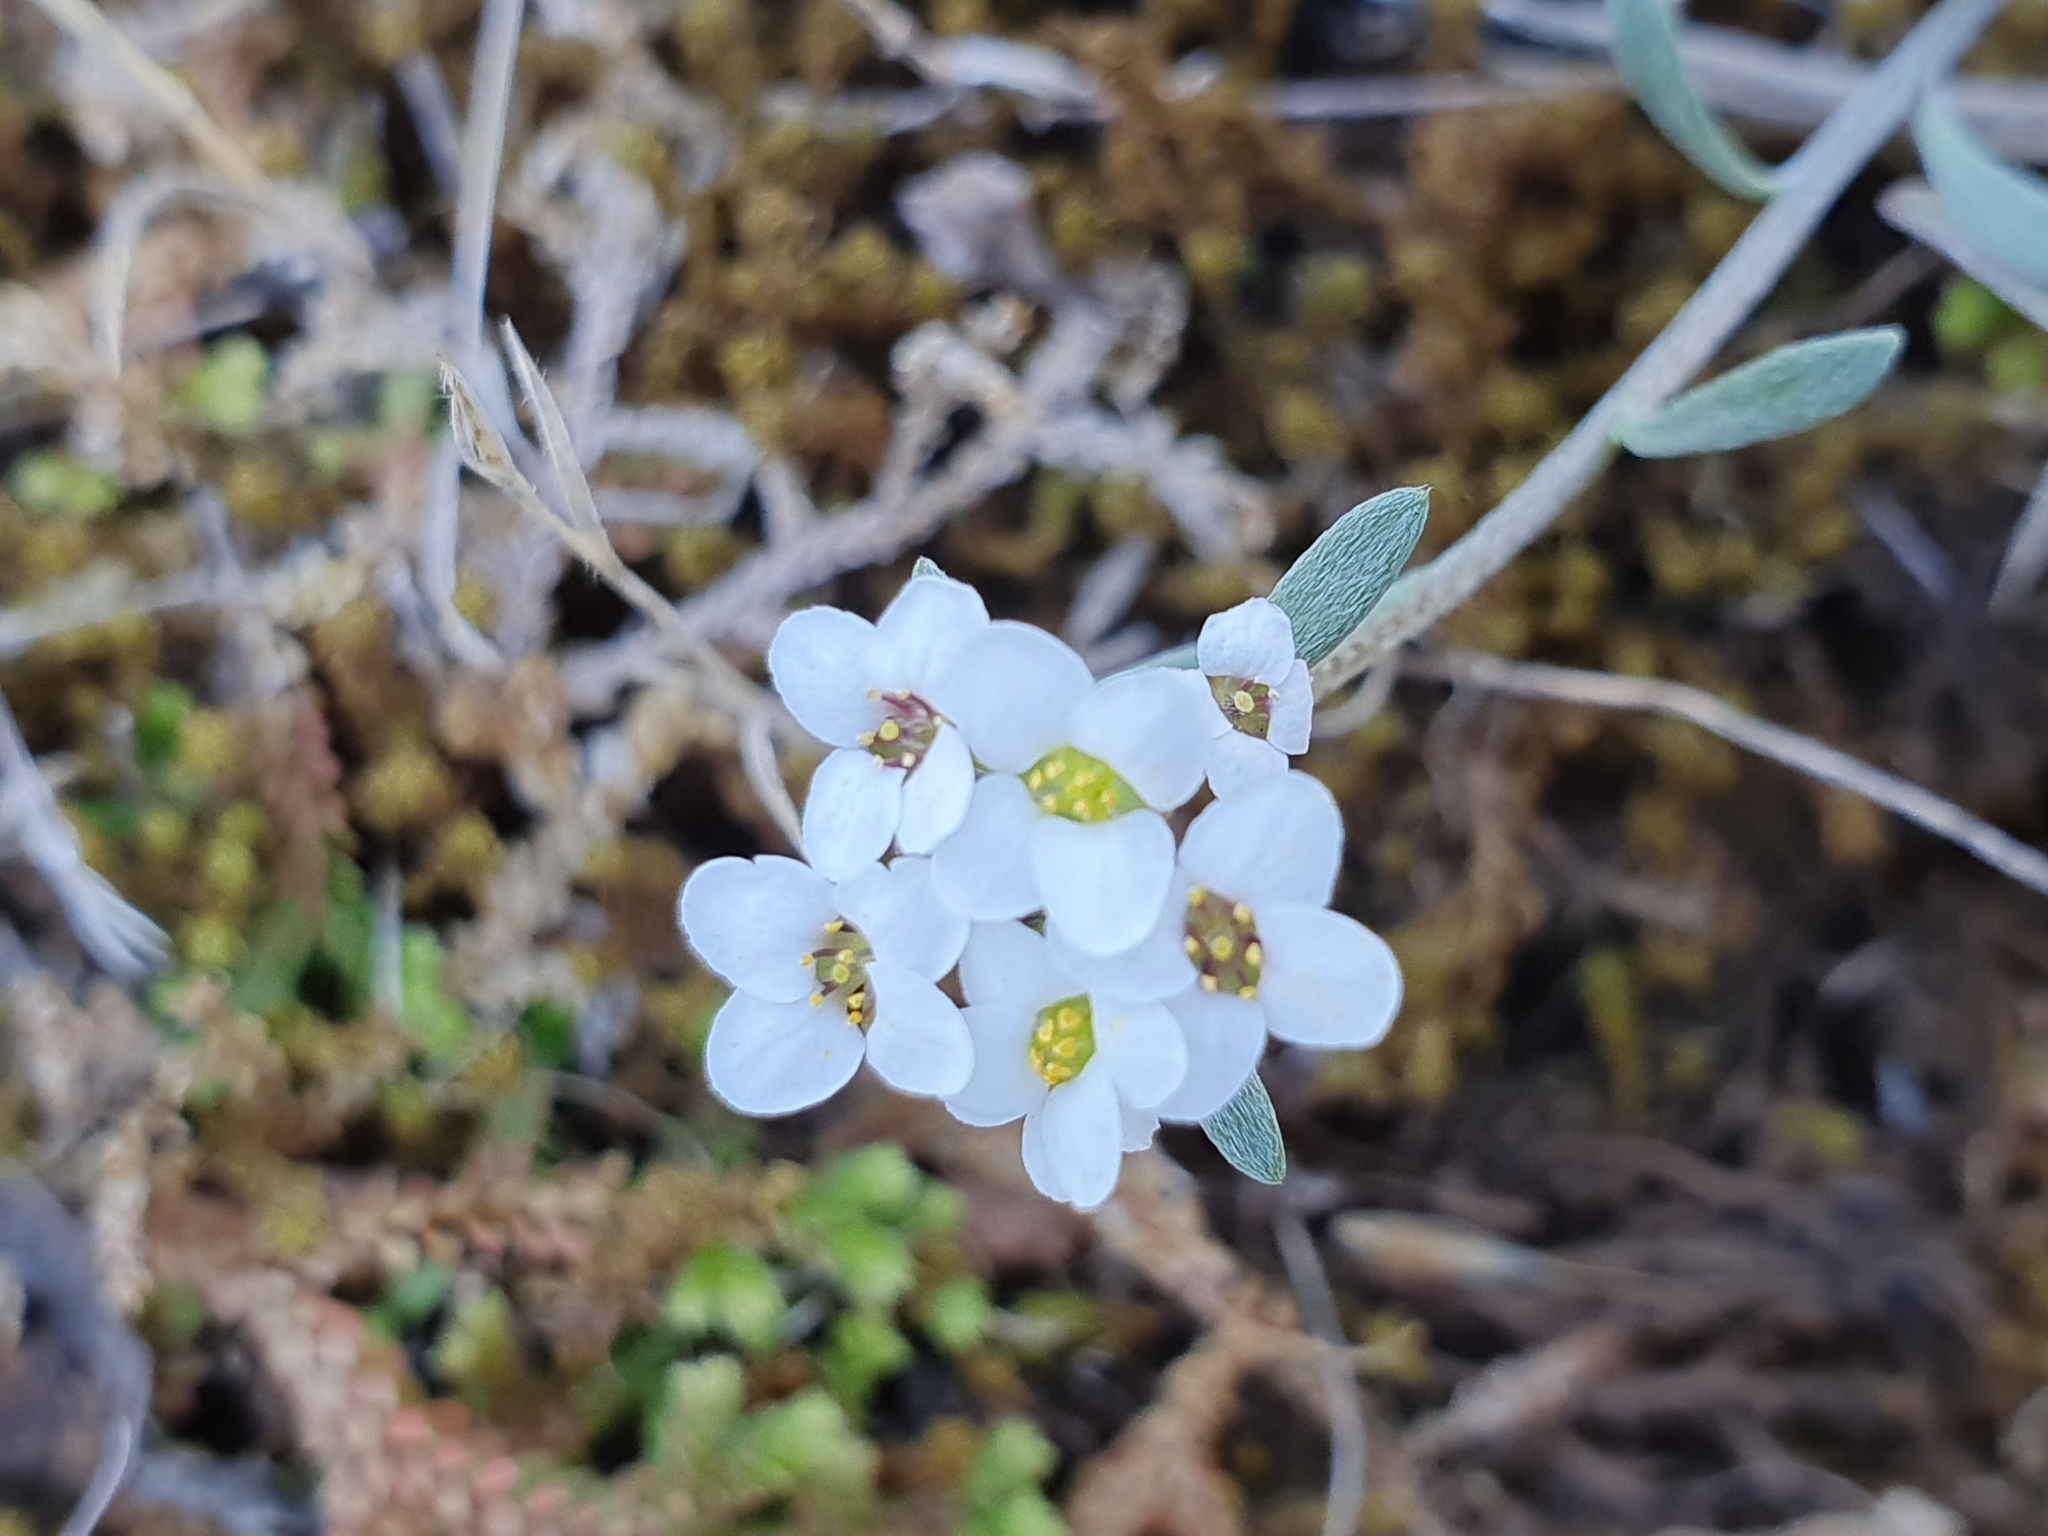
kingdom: Plantae
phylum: Tracheophyta
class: Magnoliopsida
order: Brassicales
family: Brassicaceae
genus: Lobularia
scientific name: Lobularia maritima
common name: Sweet alison
